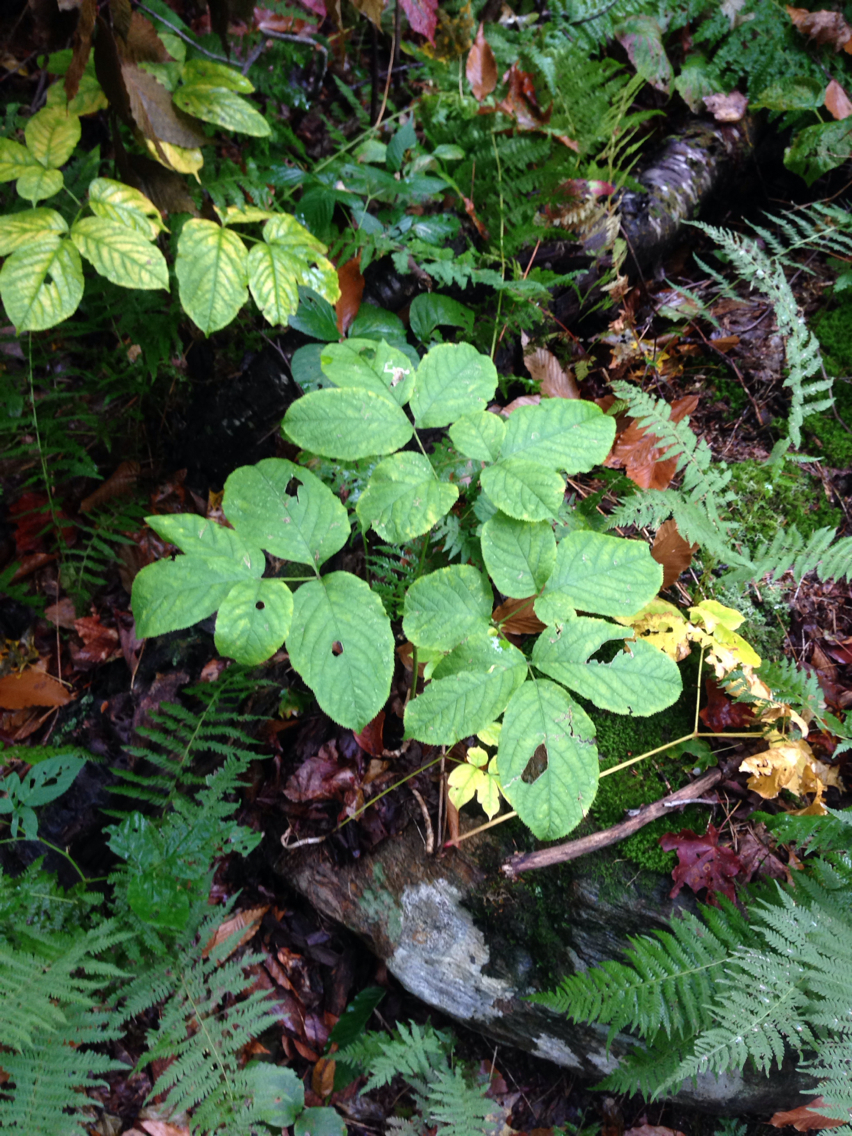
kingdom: Plantae
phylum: Tracheophyta
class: Magnoliopsida
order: Apiales
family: Araliaceae
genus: Aralia
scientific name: Aralia nudicaulis
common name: Wild sarsaparilla
